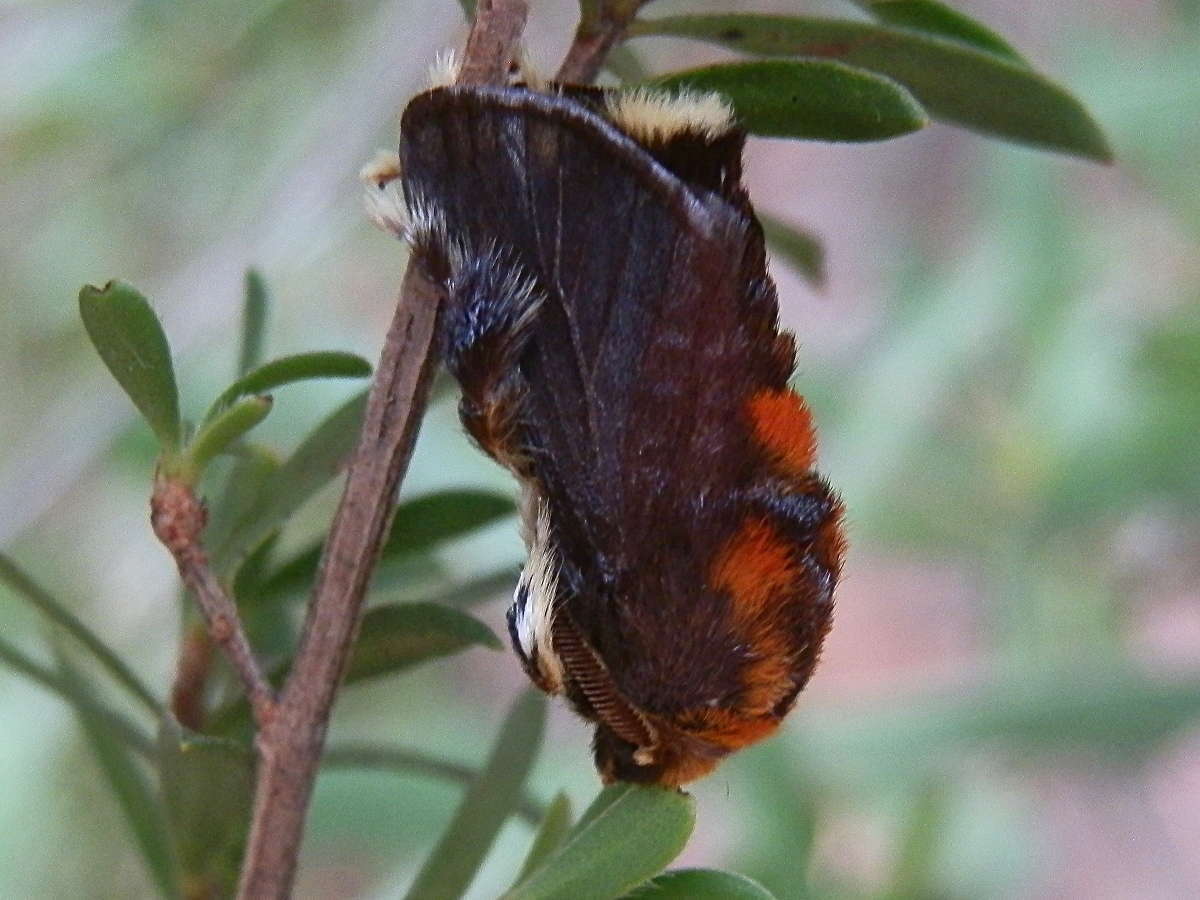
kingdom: Animalia
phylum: Arthropoda
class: Insecta
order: Lepidoptera
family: Limacodidae
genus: Doratifera
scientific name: Doratifera oxleyi
